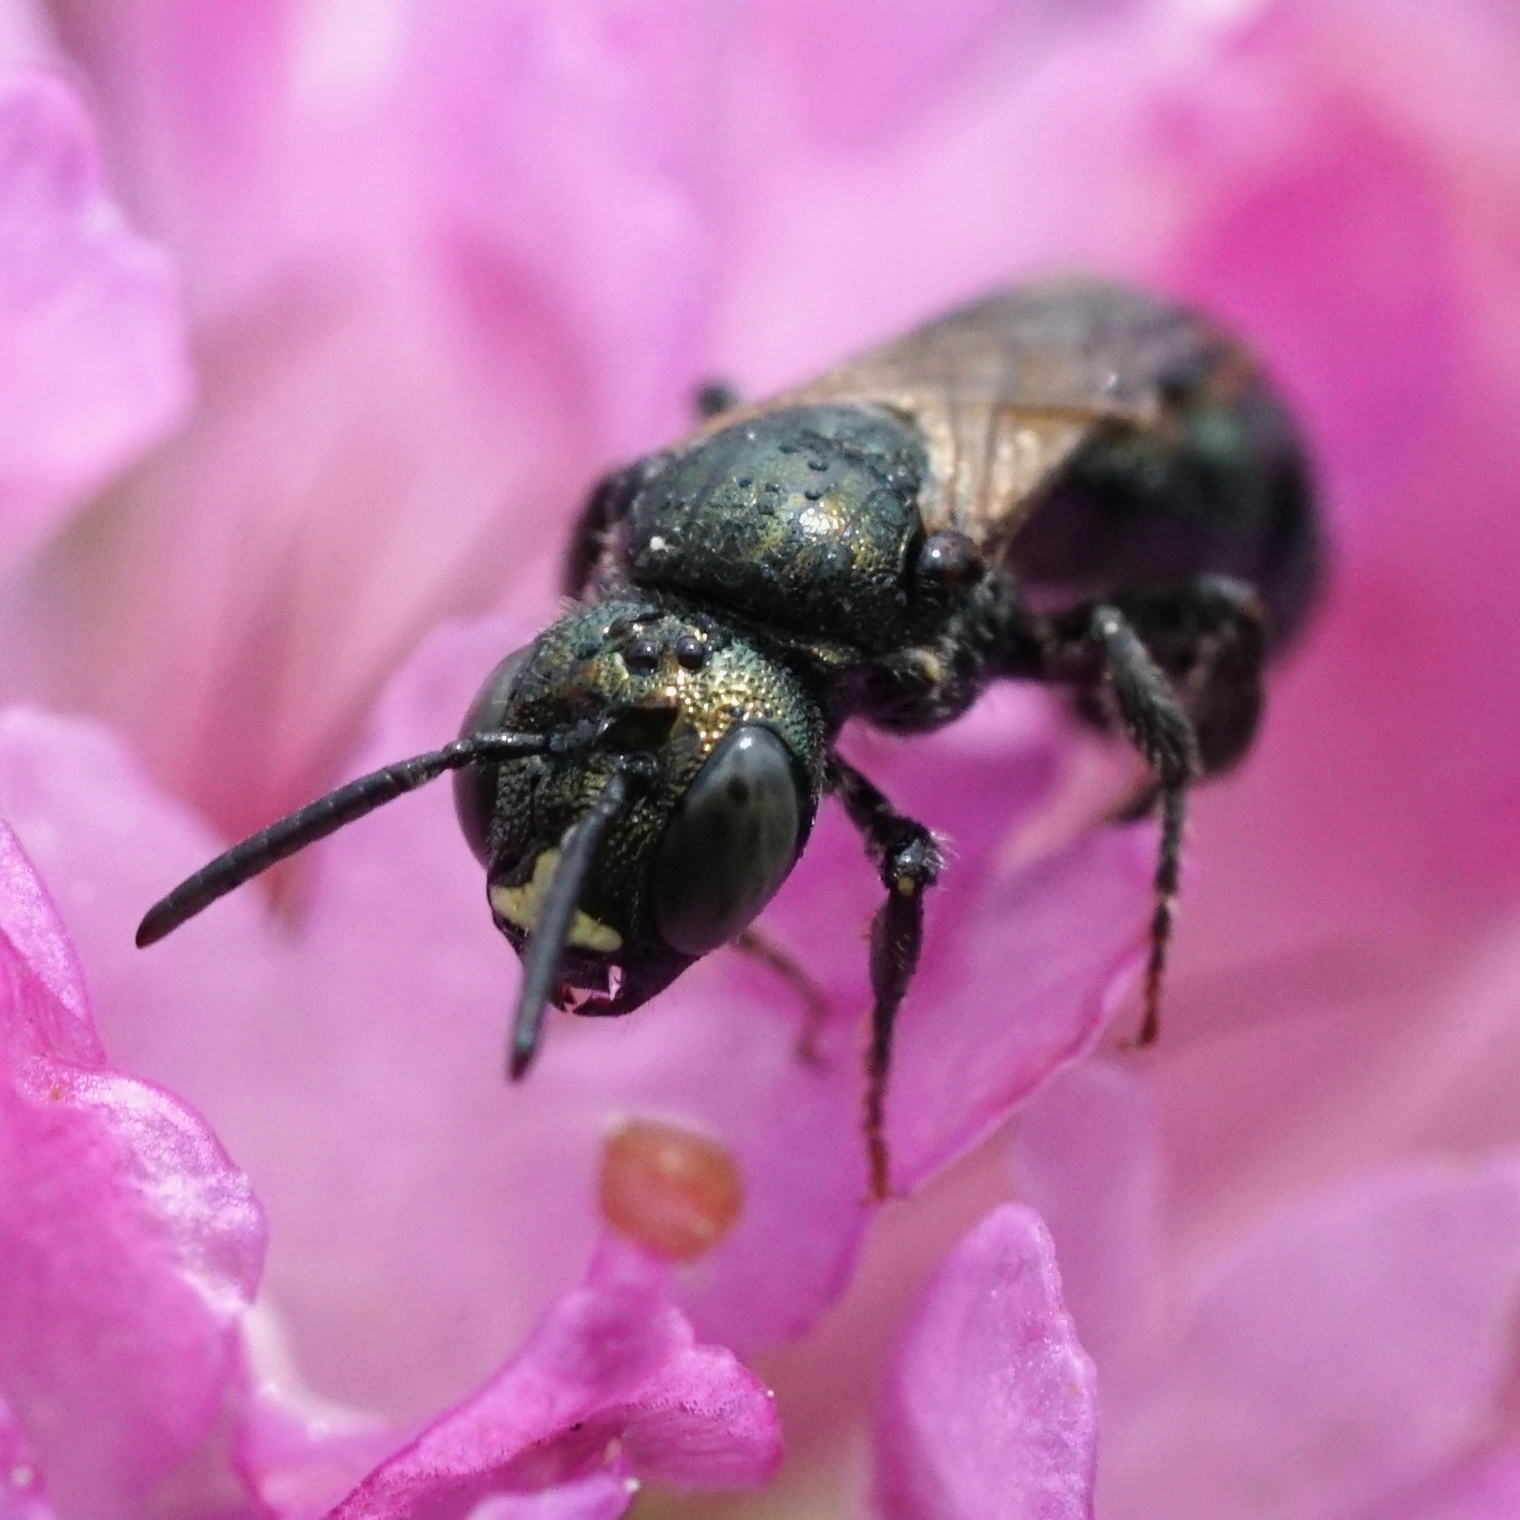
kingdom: Animalia
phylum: Arthropoda
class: Insecta
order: Hymenoptera
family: Apidae
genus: Ceratina
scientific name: Ceratina calcarata
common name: Spurred carpenter bee
